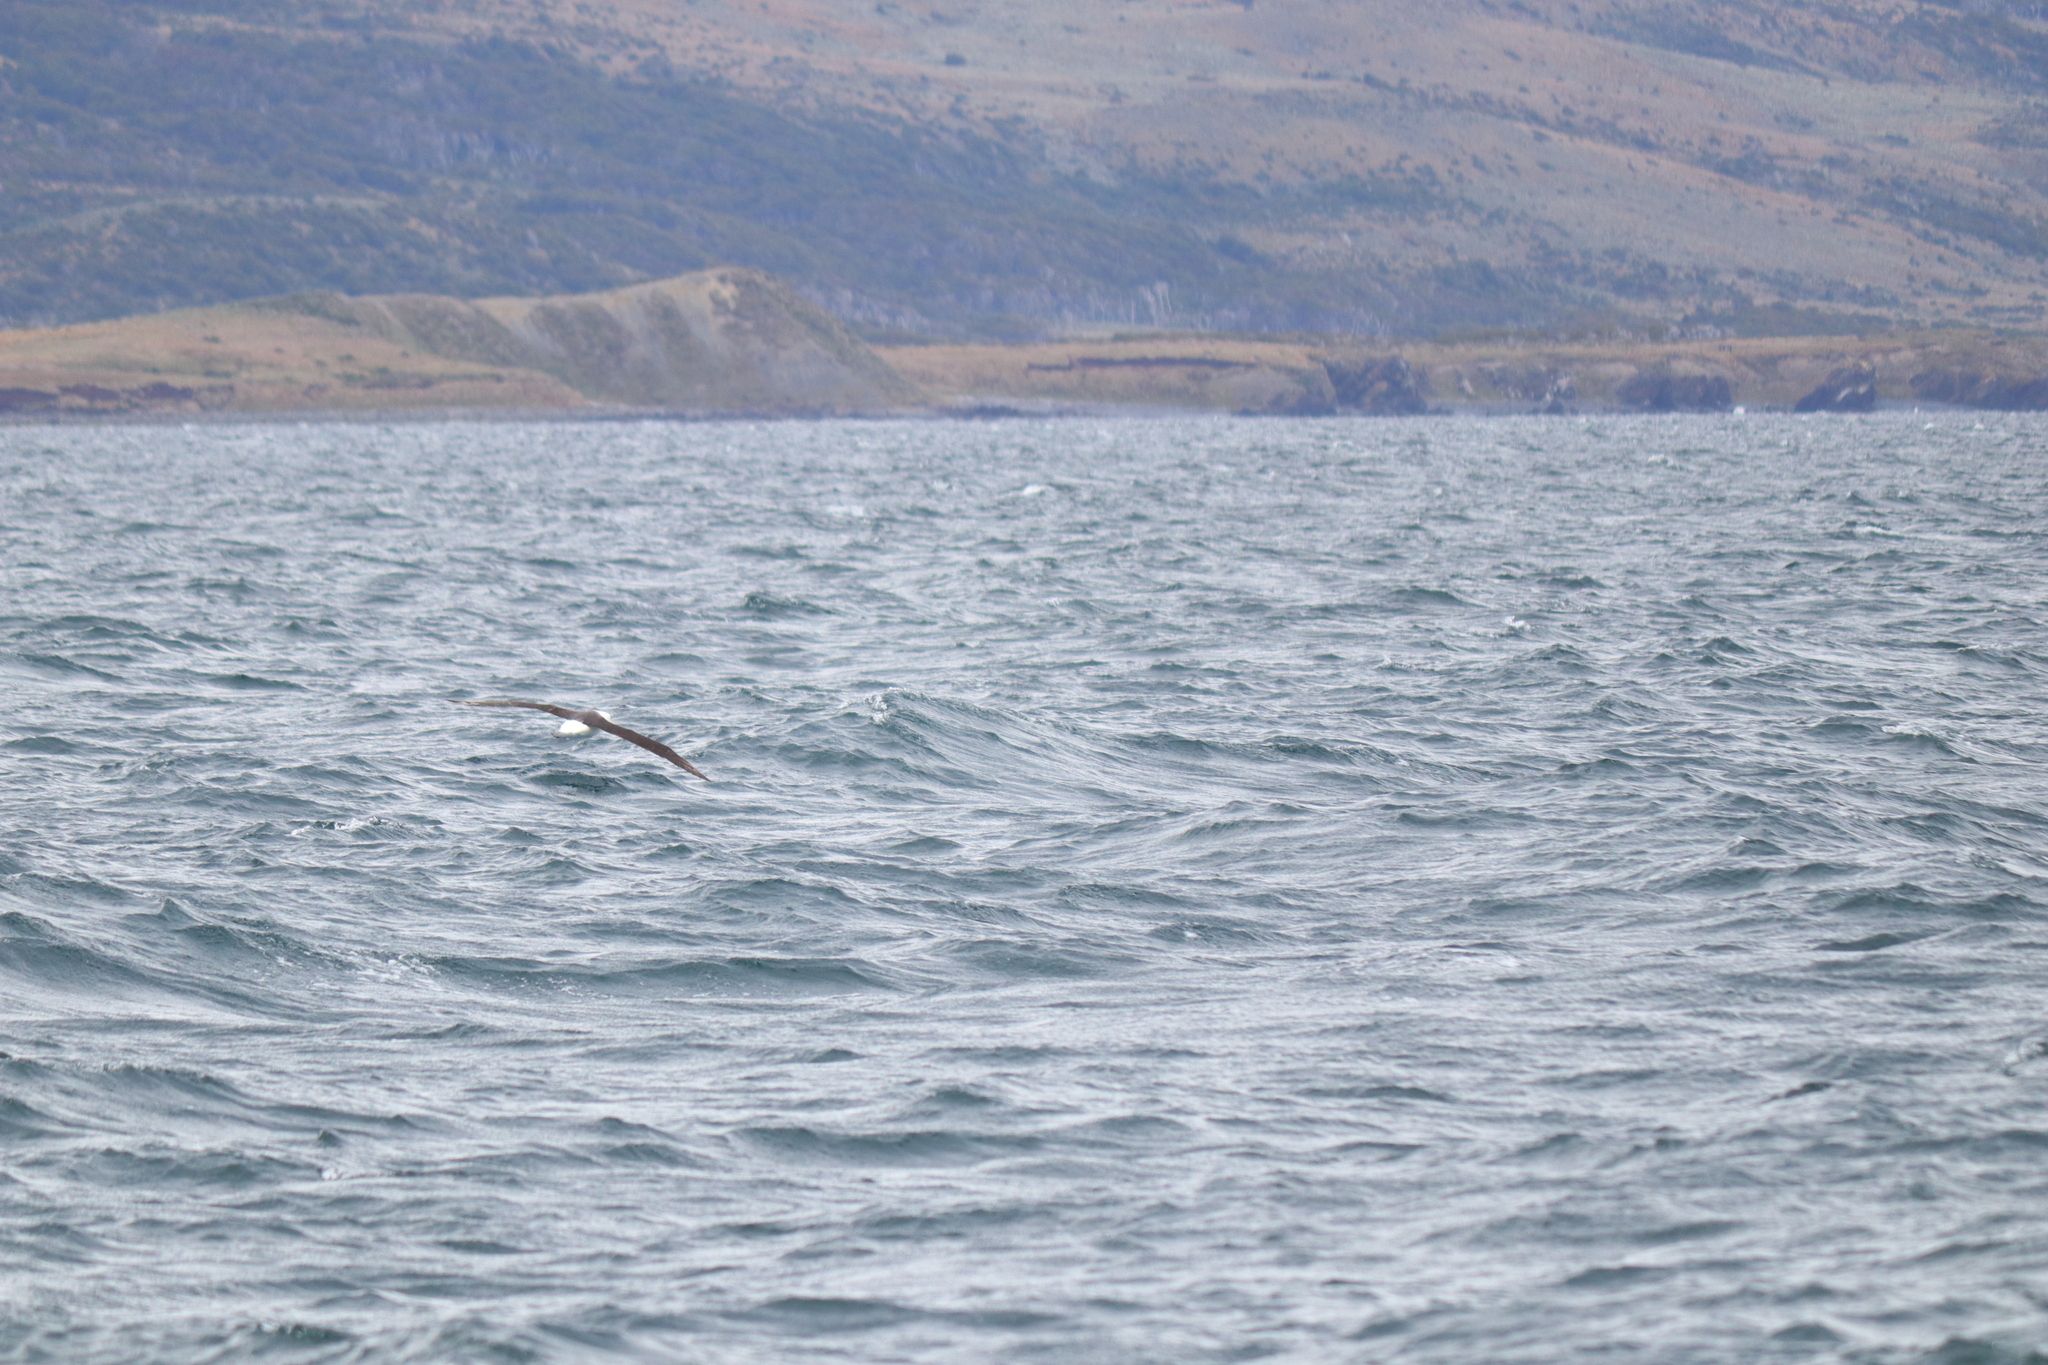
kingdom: Animalia
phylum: Chordata
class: Aves
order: Procellariiformes
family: Diomedeidae
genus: Thalassarche
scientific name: Thalassarche melanophris
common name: Black-browed albatross
